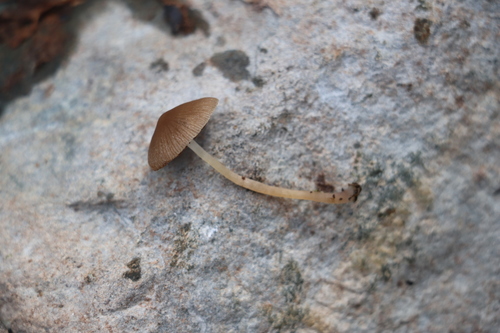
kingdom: Fungi
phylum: Basidiomycota
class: Agaricomycetes
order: Agaricales
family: Psathyrellaceae
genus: Psathyrella
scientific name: Psathyrella
